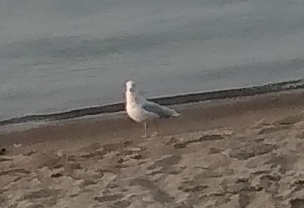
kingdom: Animalia
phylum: Chordata
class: Aves
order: Charadriiformes
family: Laridae
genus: Larus
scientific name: Larus delawarensis
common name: Ring-billed gull
